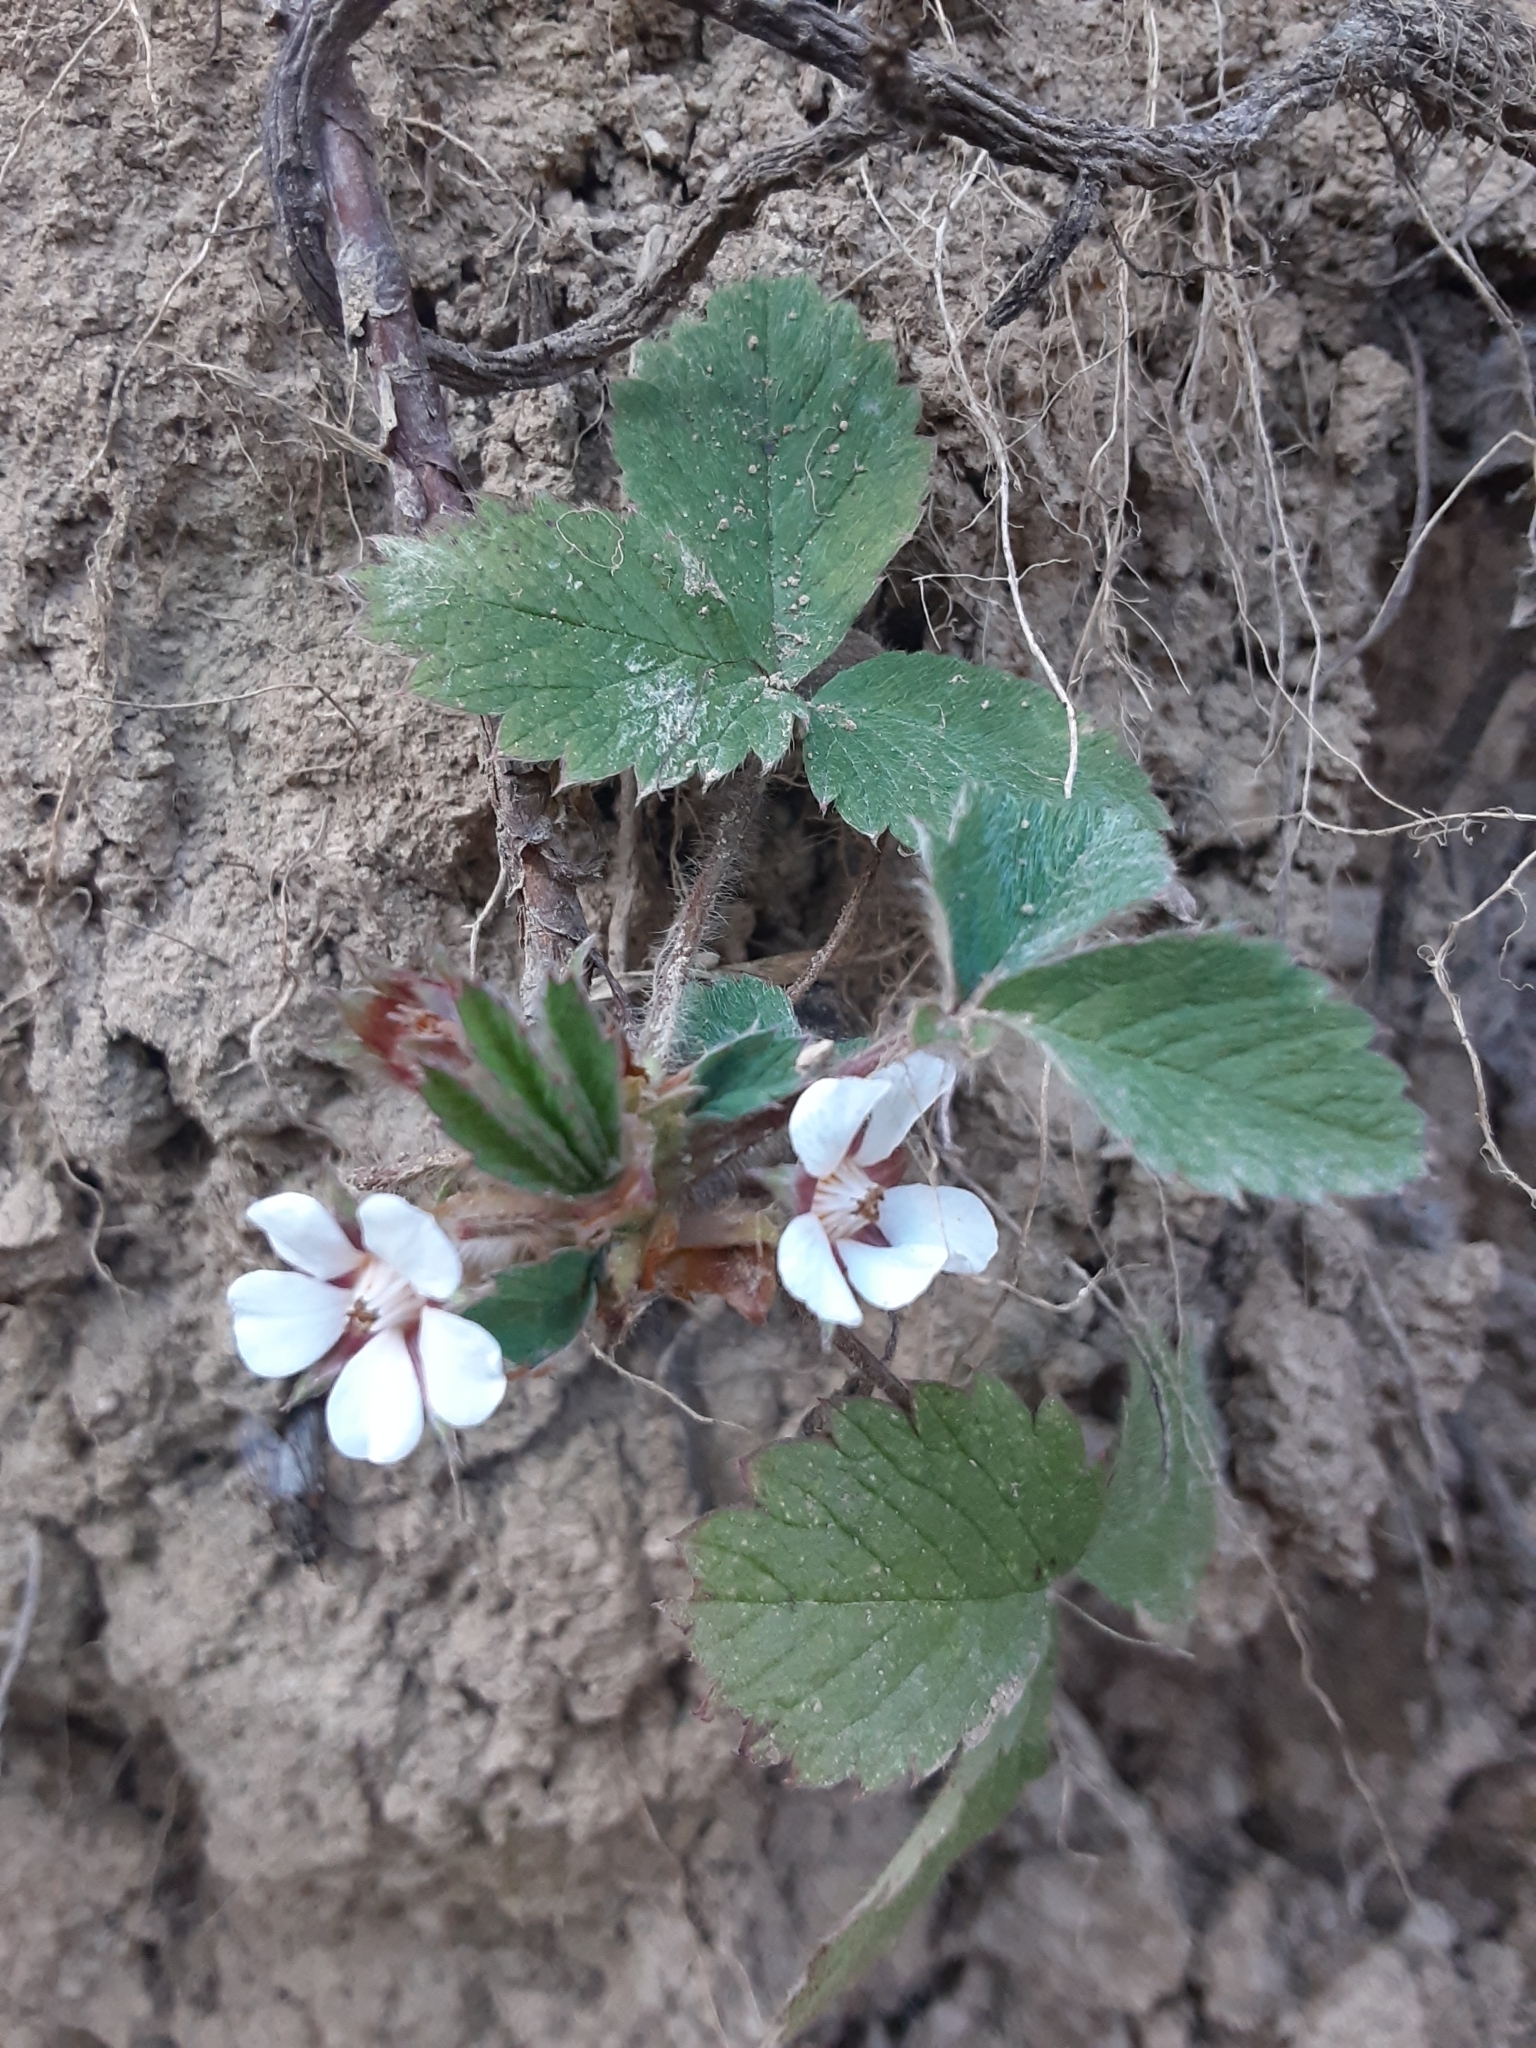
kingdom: Plantae
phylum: Tracheophyta
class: Magnoliopsida
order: Rosales
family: Rosaceae
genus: Potentilla
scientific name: Potentilla micrantha
